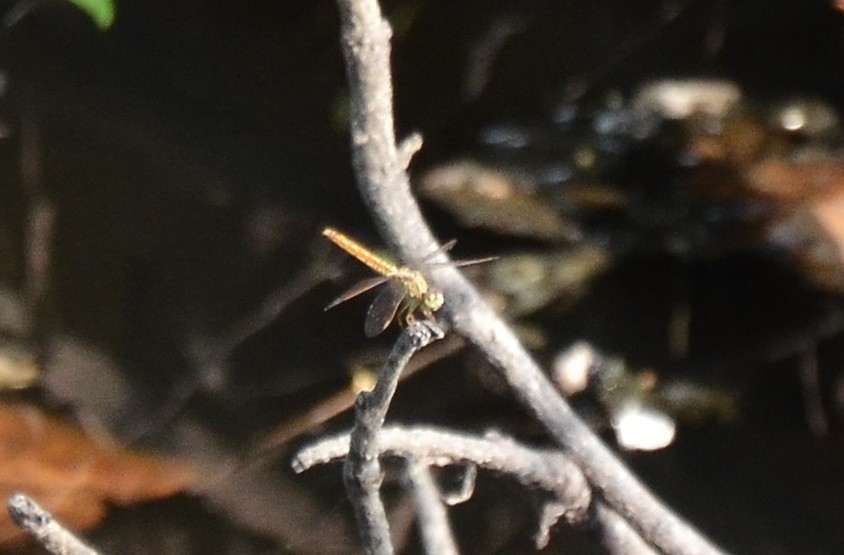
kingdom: Animalia
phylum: Arthropoda
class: Insecta
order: Odonata
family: Libellulidae
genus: Brachythemis
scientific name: Brachythemis contaminata
